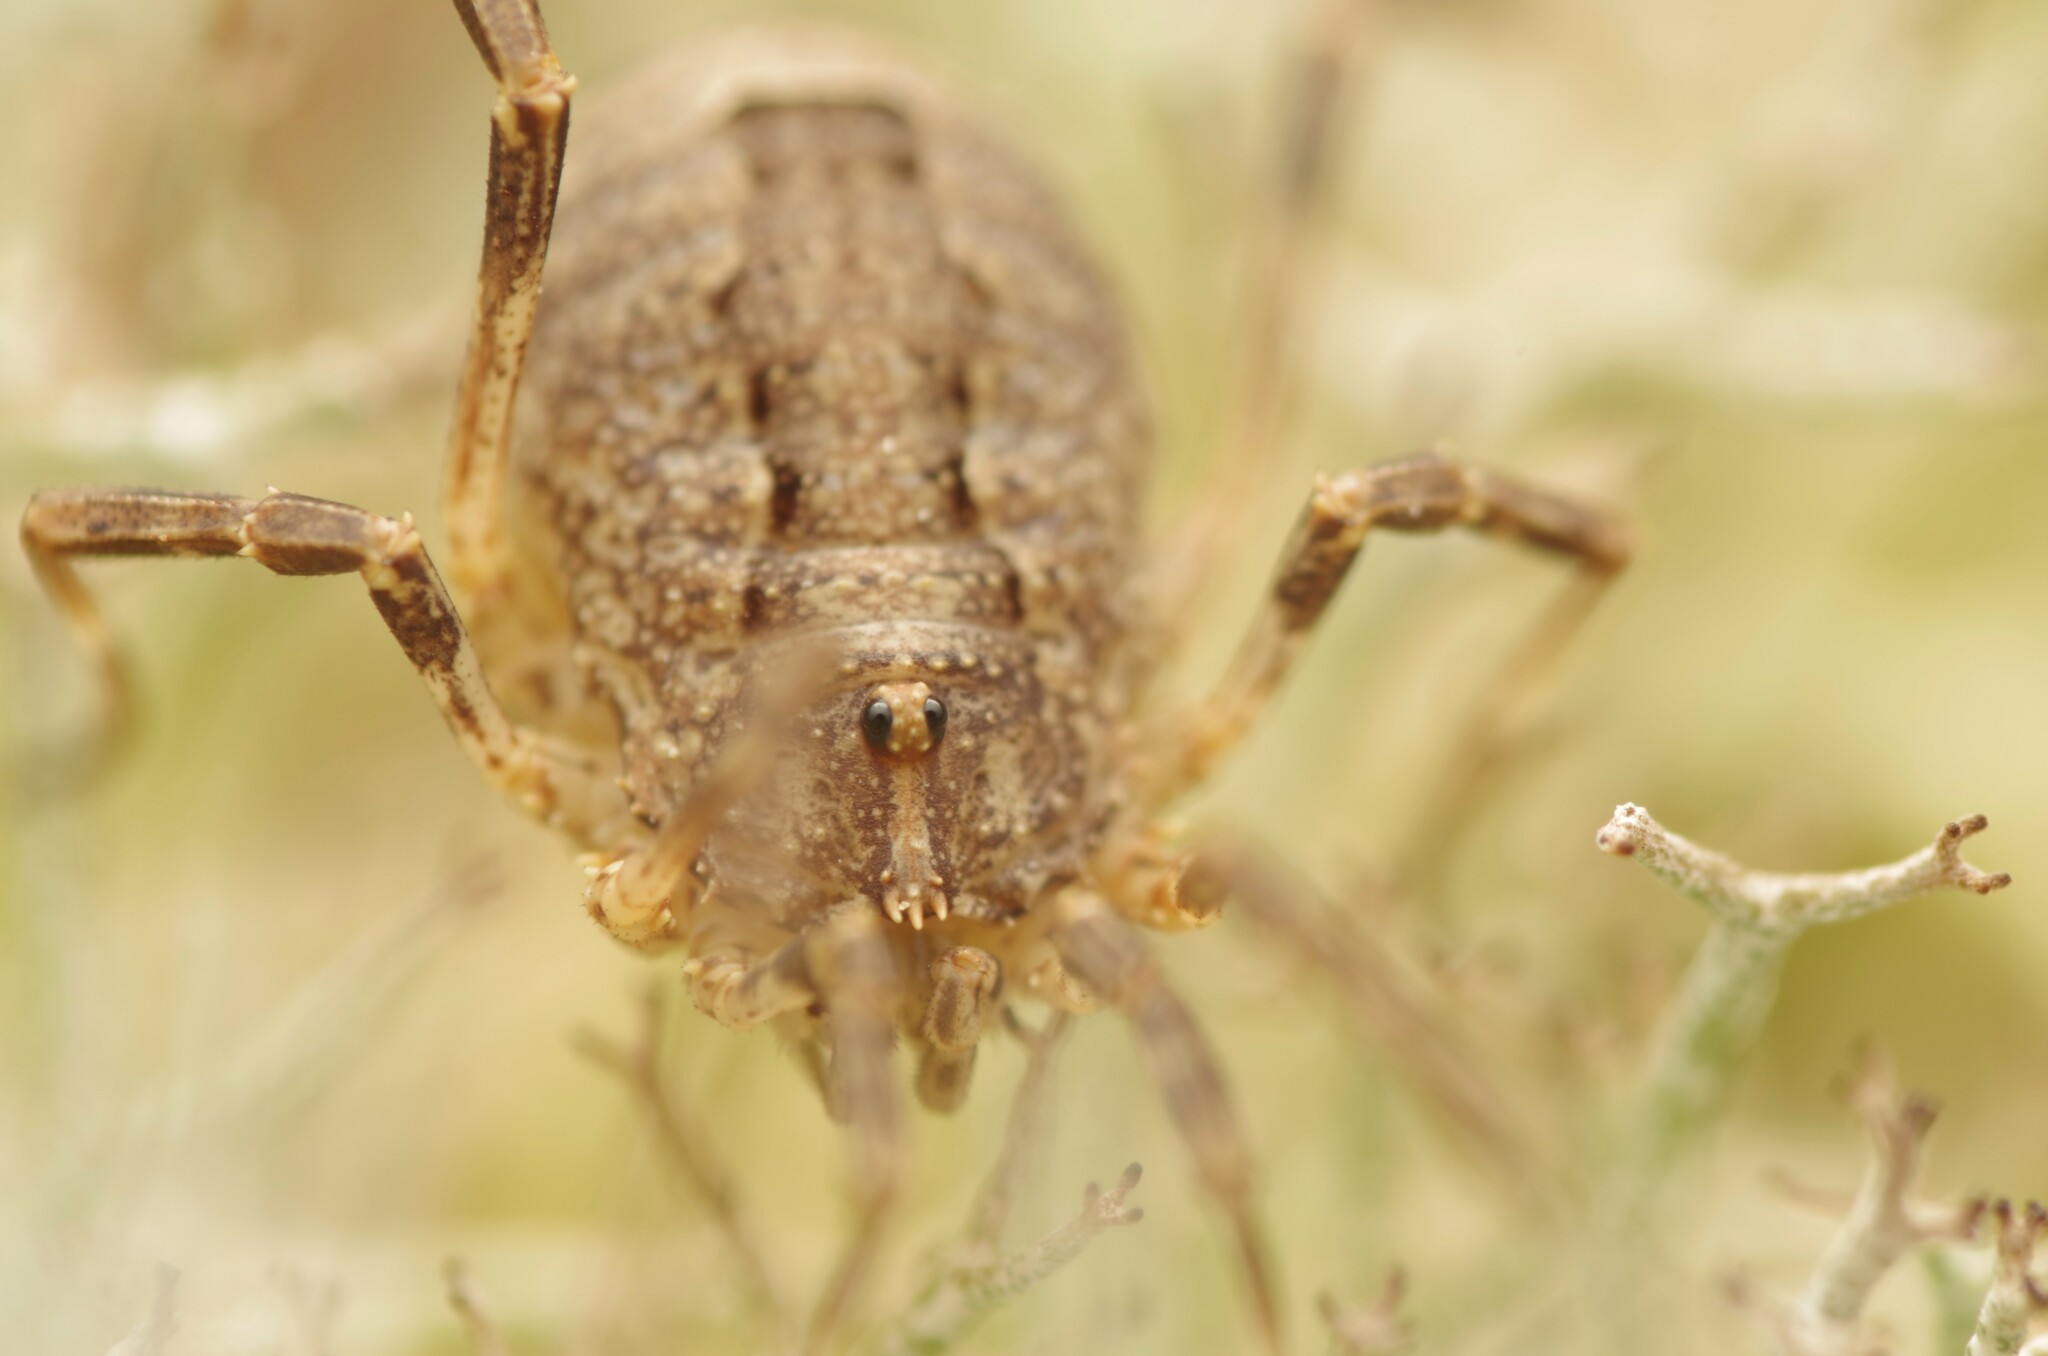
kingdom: Animalia
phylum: Arthropoda
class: Arachnida
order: Opiliones
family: Phalangiidae
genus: Odiellus
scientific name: Odiellus spinosus
